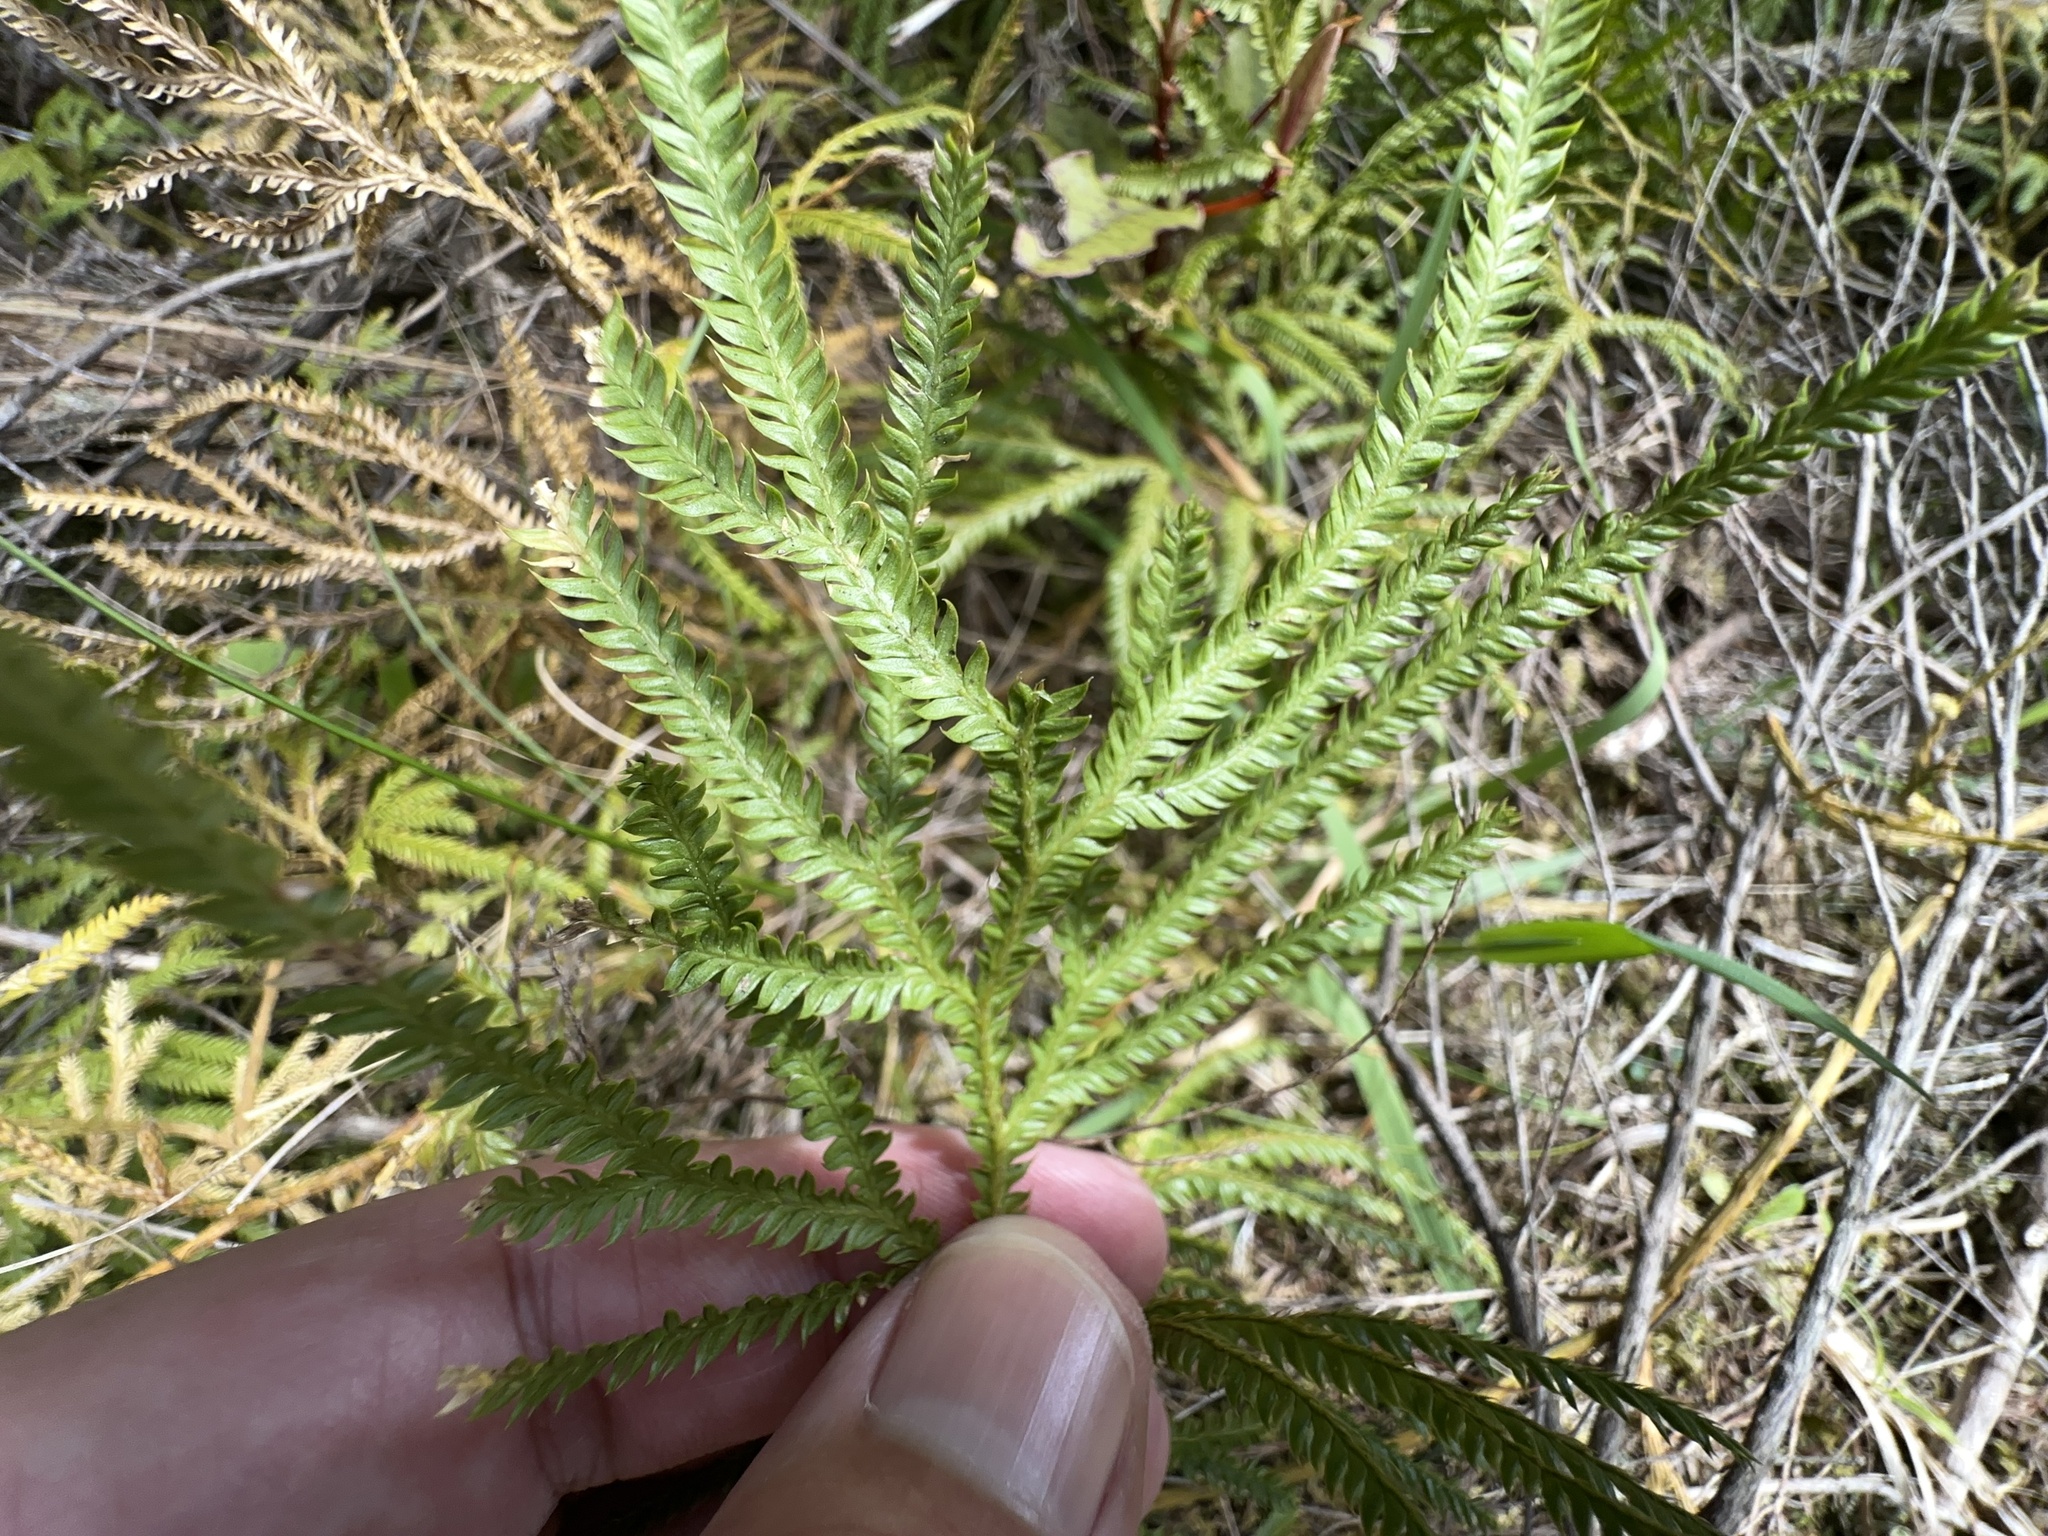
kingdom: Plantae
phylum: Tracheophyta
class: Lycopodiopsida
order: Lycopodiales
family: Lycopodiaceae
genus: Lycopodium
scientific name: Lycopodium volubile
